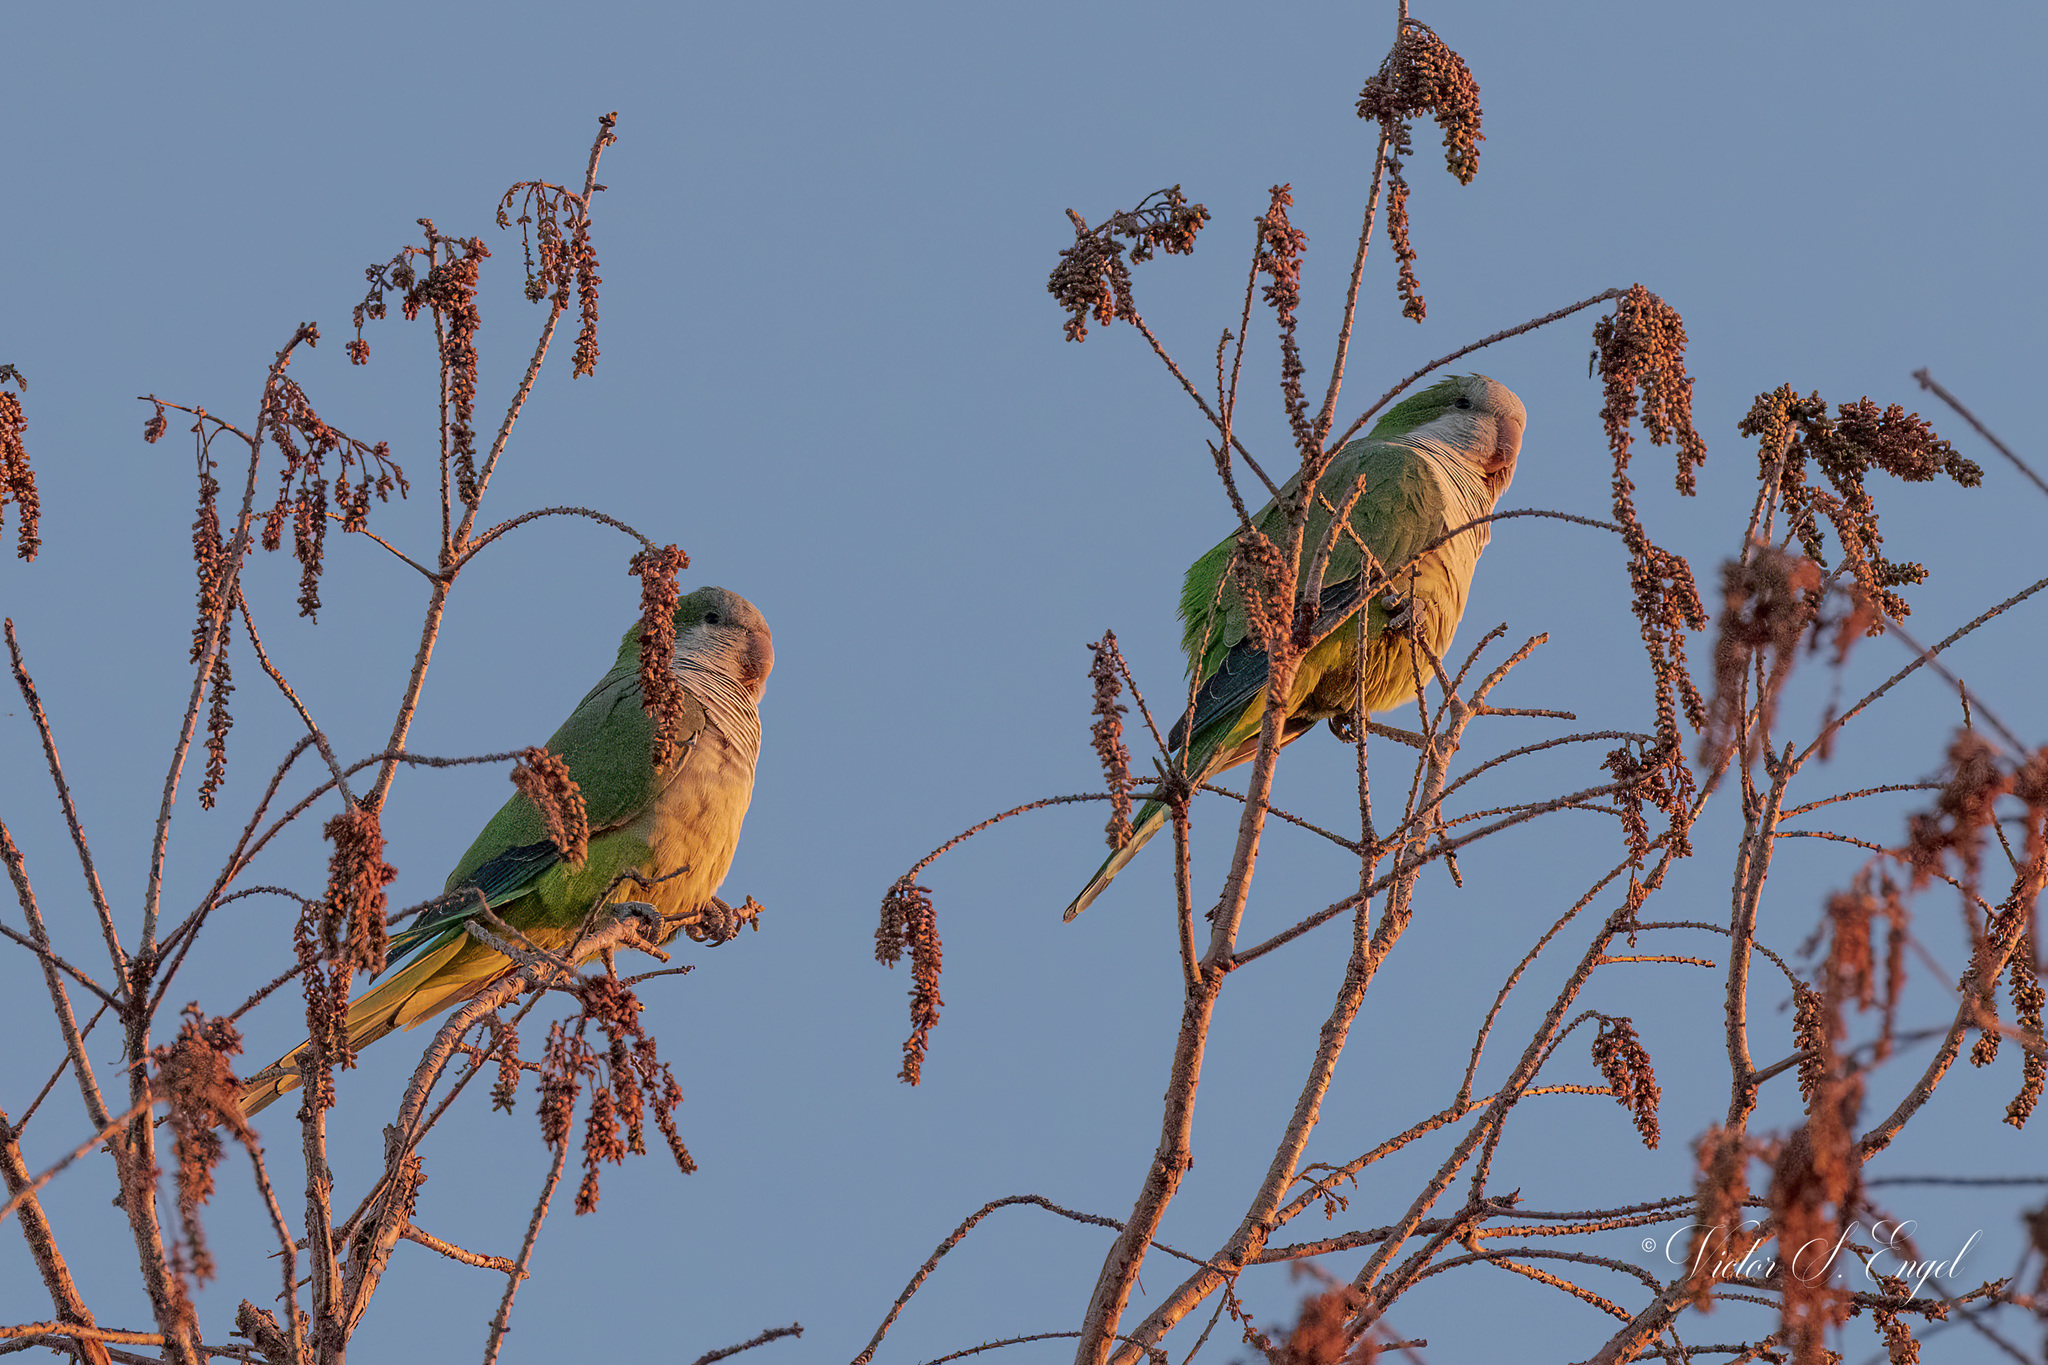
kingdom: Animalia
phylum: Chordata
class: Aves
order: Psittaciformes
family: Psittacidae
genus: Myiopsitta
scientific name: Myiopsitta monachus
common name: Monk parakeet
